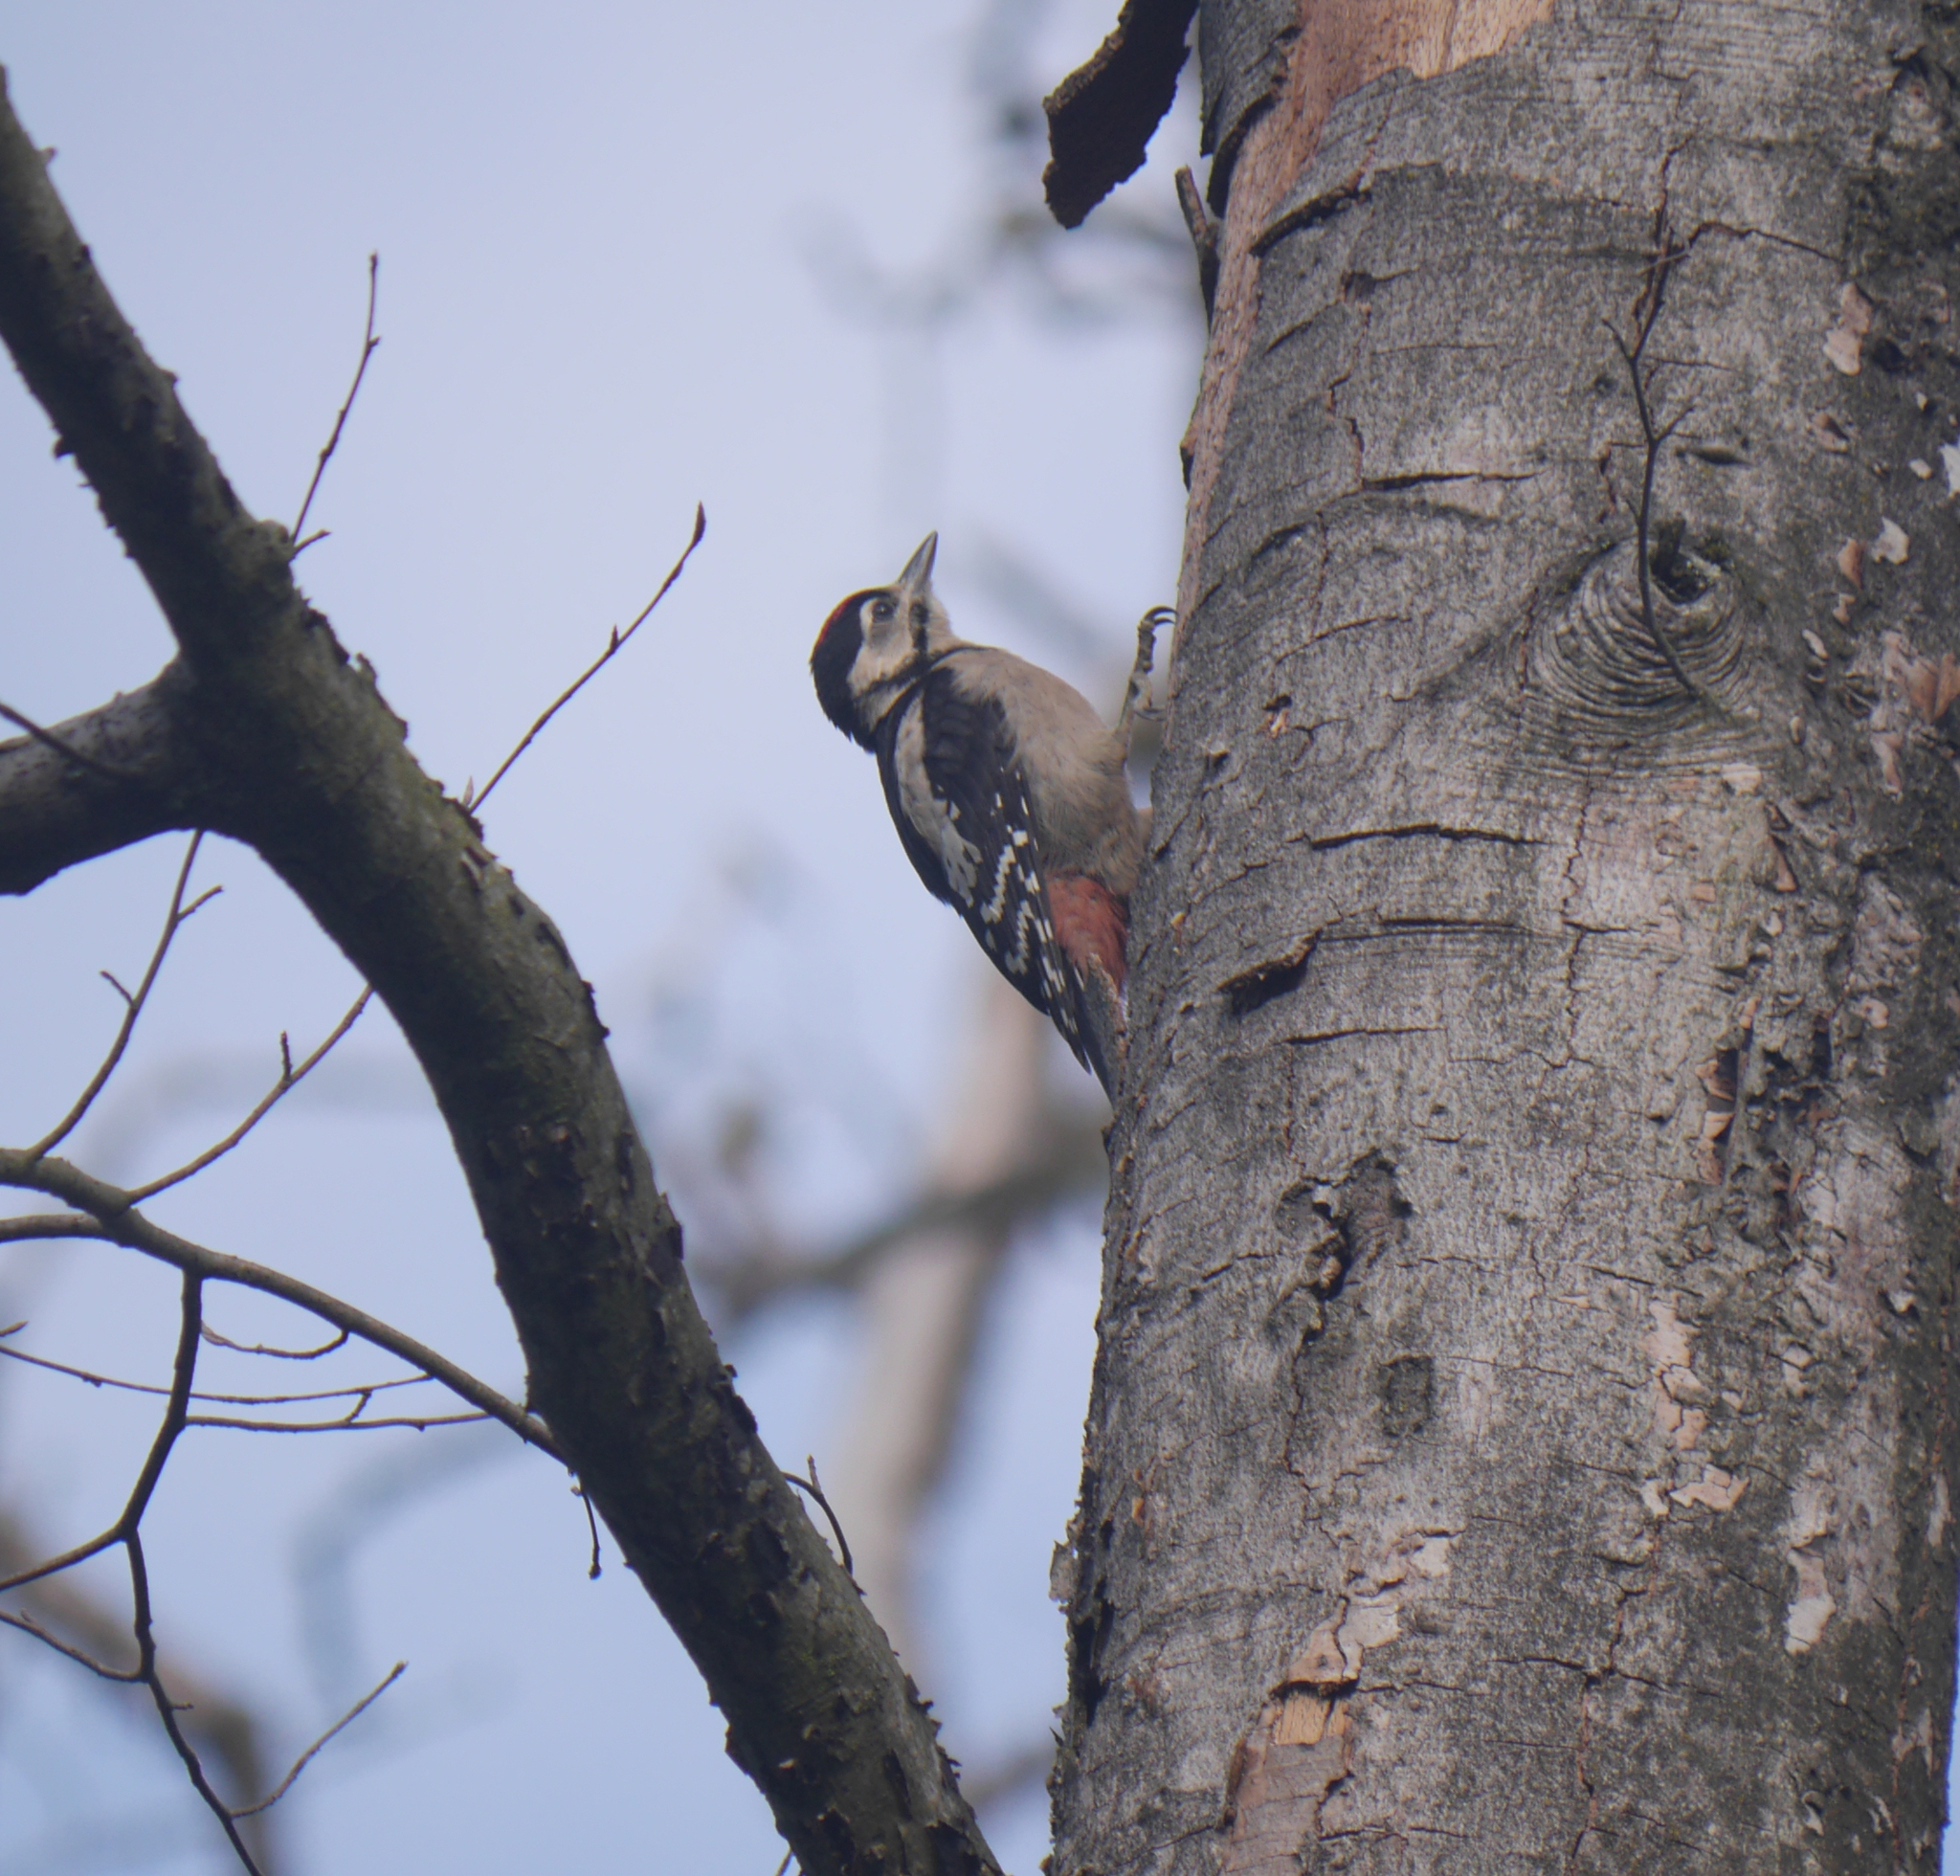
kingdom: Animalia
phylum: Chordata
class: Aves
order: Piciformes
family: Picidae
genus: Dendrocopos
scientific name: Dendrocopos major
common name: Great spotted woodpecker
